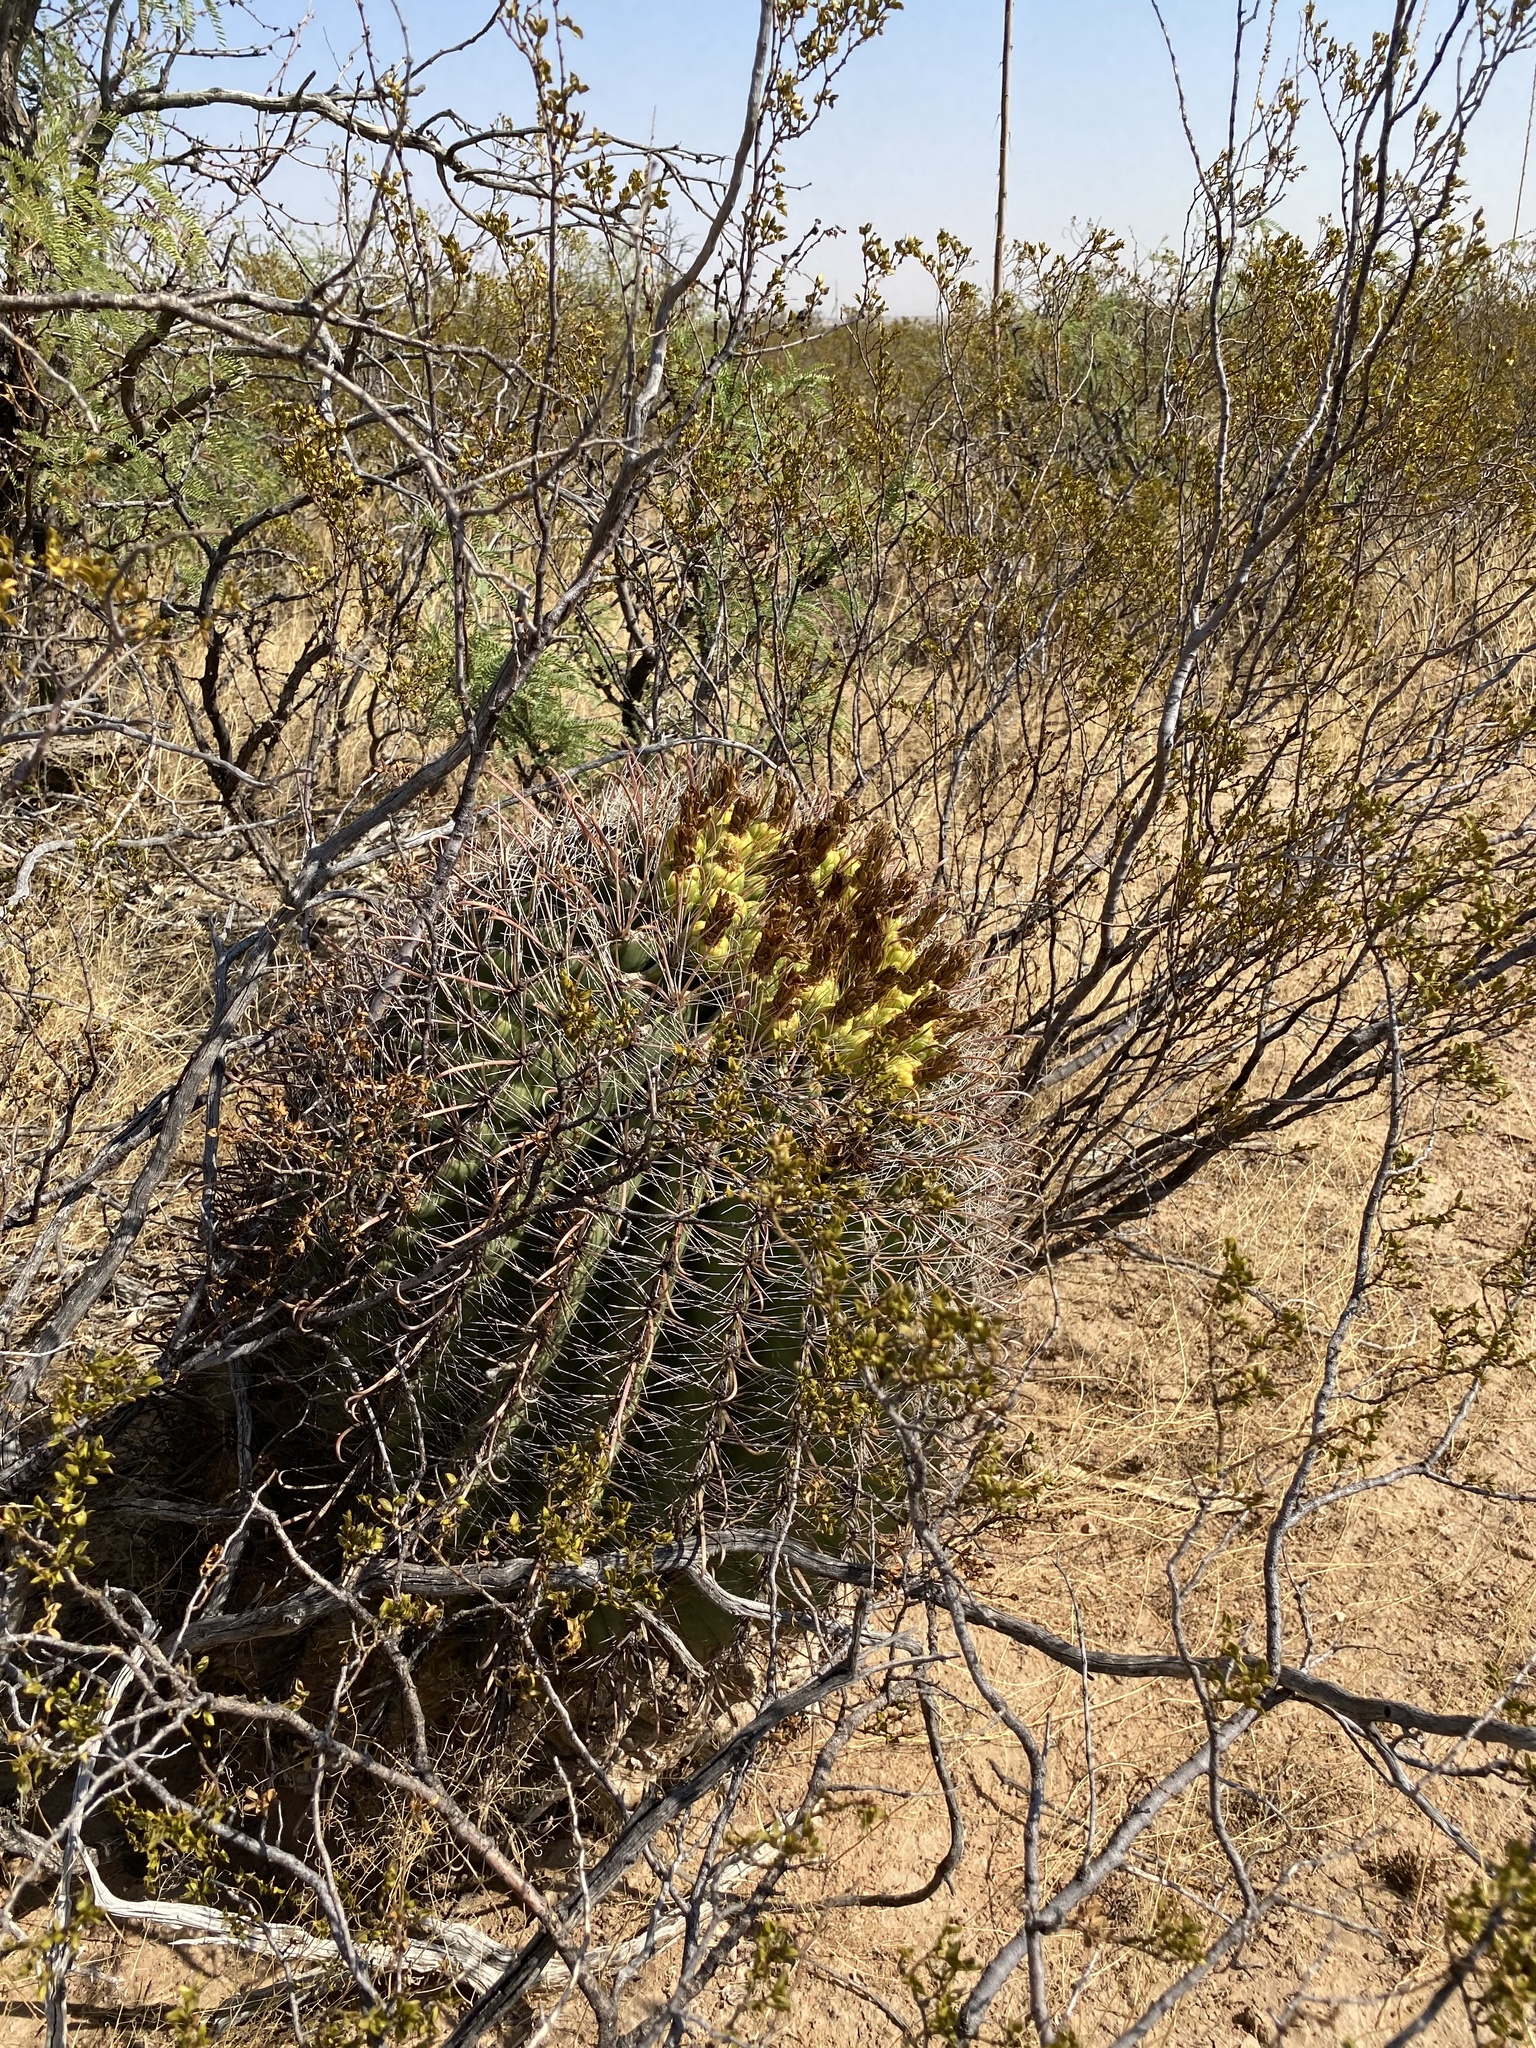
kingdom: Plantae
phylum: Tracheophyta
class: Magnoliopsida
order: Caryophyllales
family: Cactaceae
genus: Ferocactus
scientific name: Ferocactus wislizeni
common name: Candy barrel cactus
